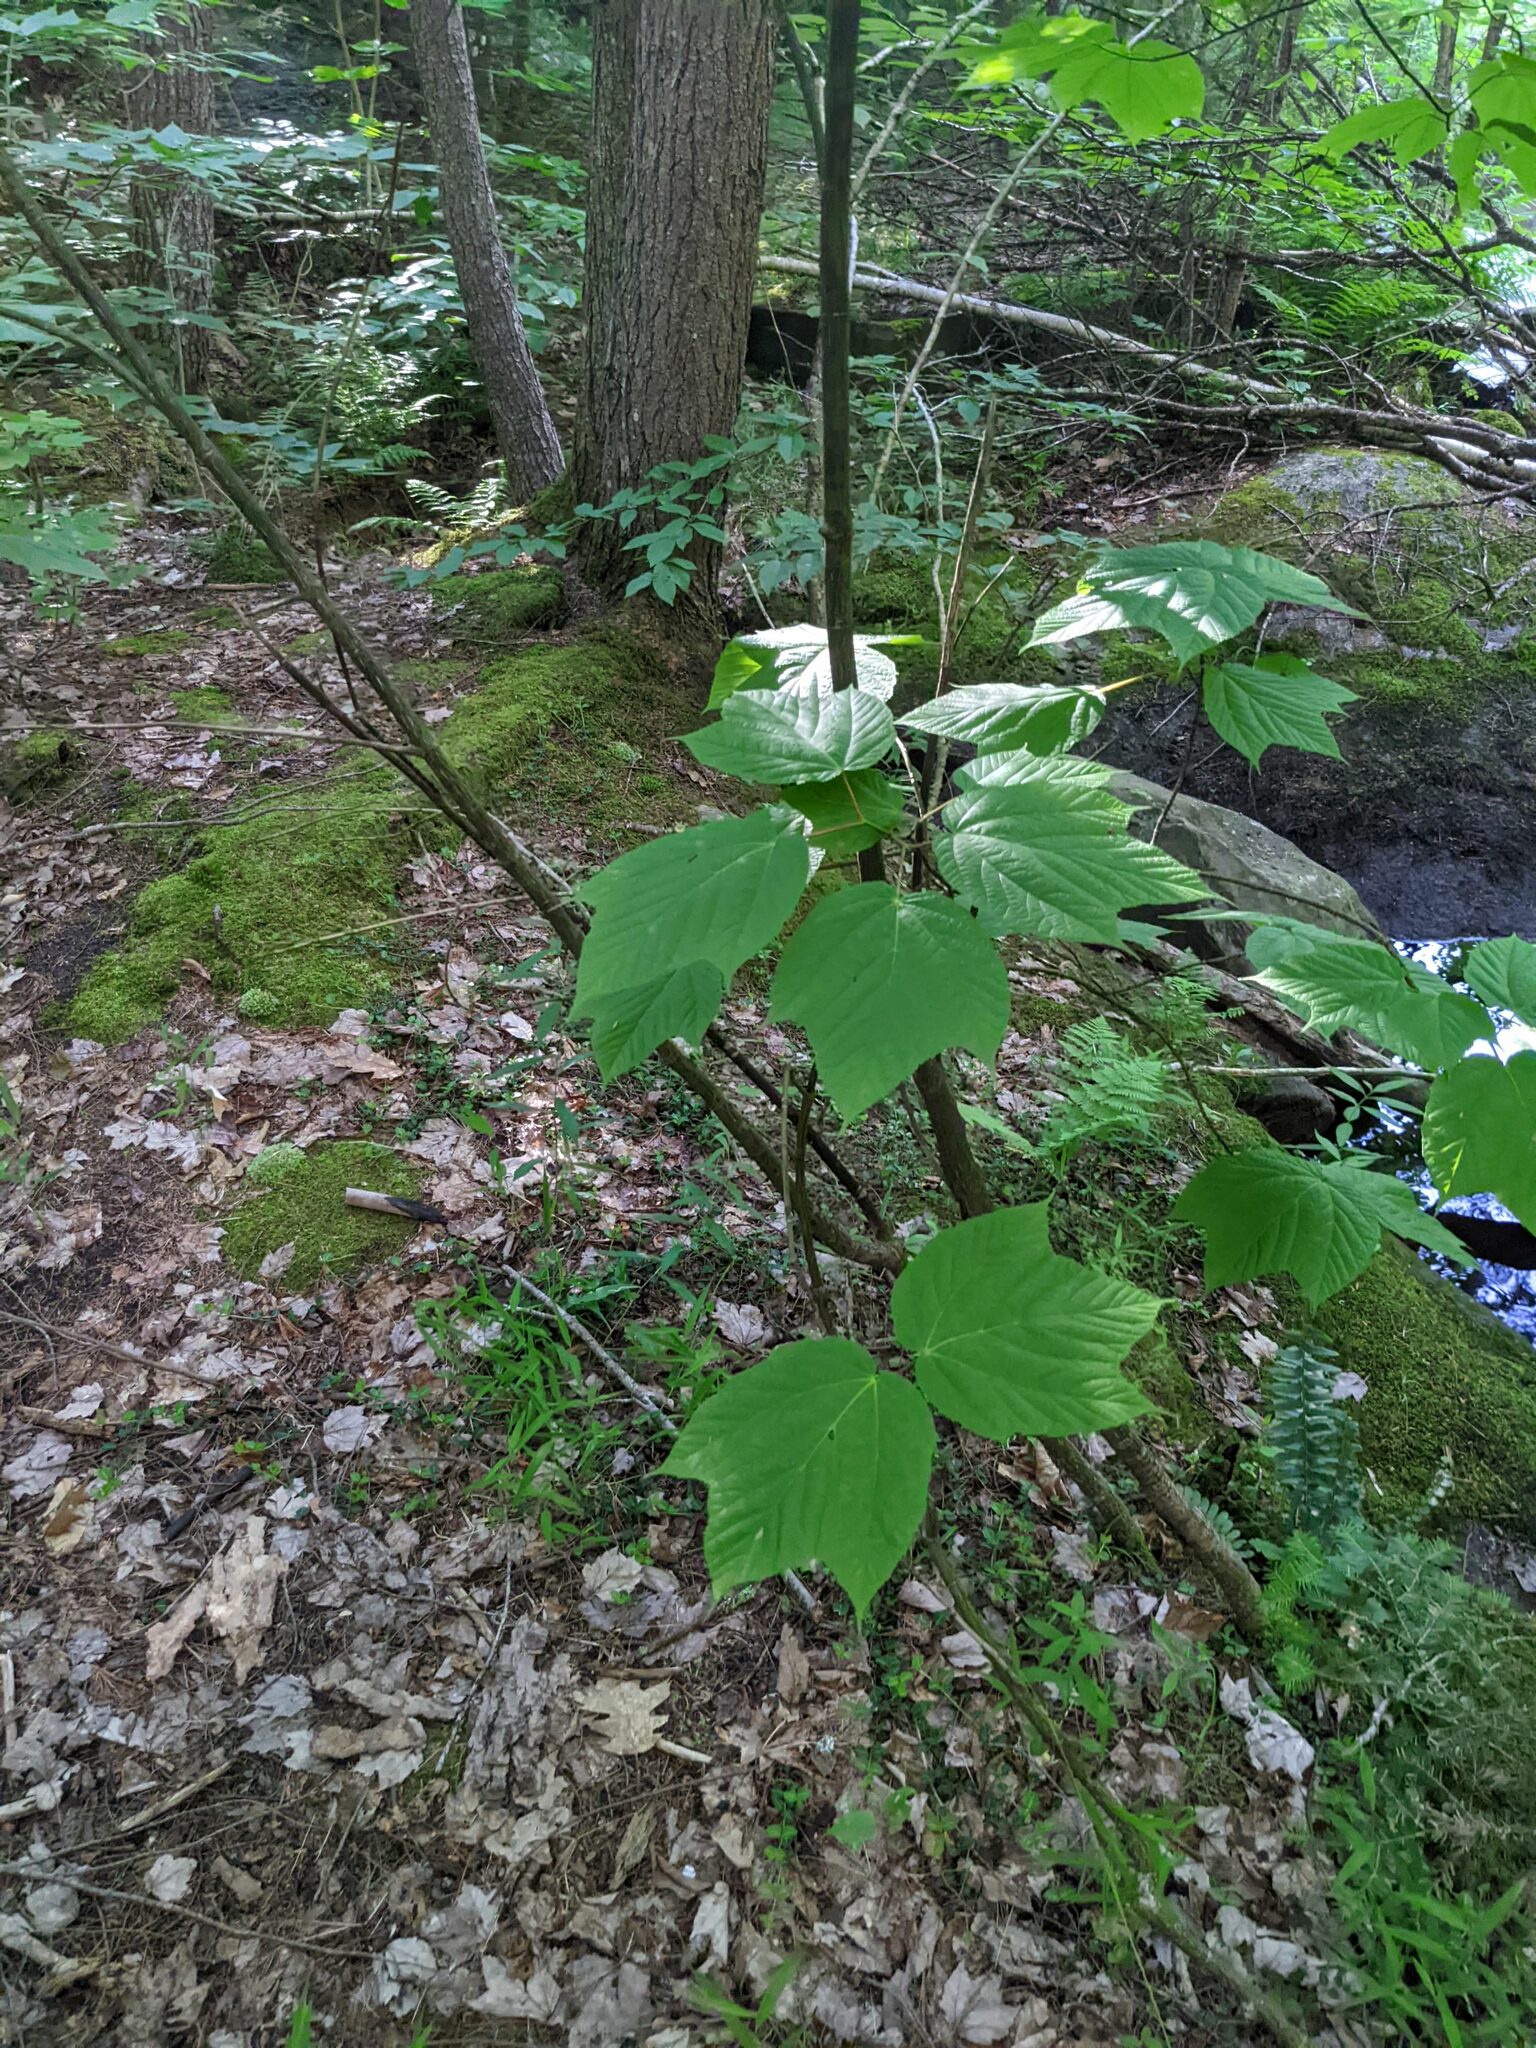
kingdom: Plantae
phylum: Tracheophyta
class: Magnoliopsida
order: Sapindales
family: Sapindaceae
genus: Acer
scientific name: Acer pensylvanicum
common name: Moosewood
